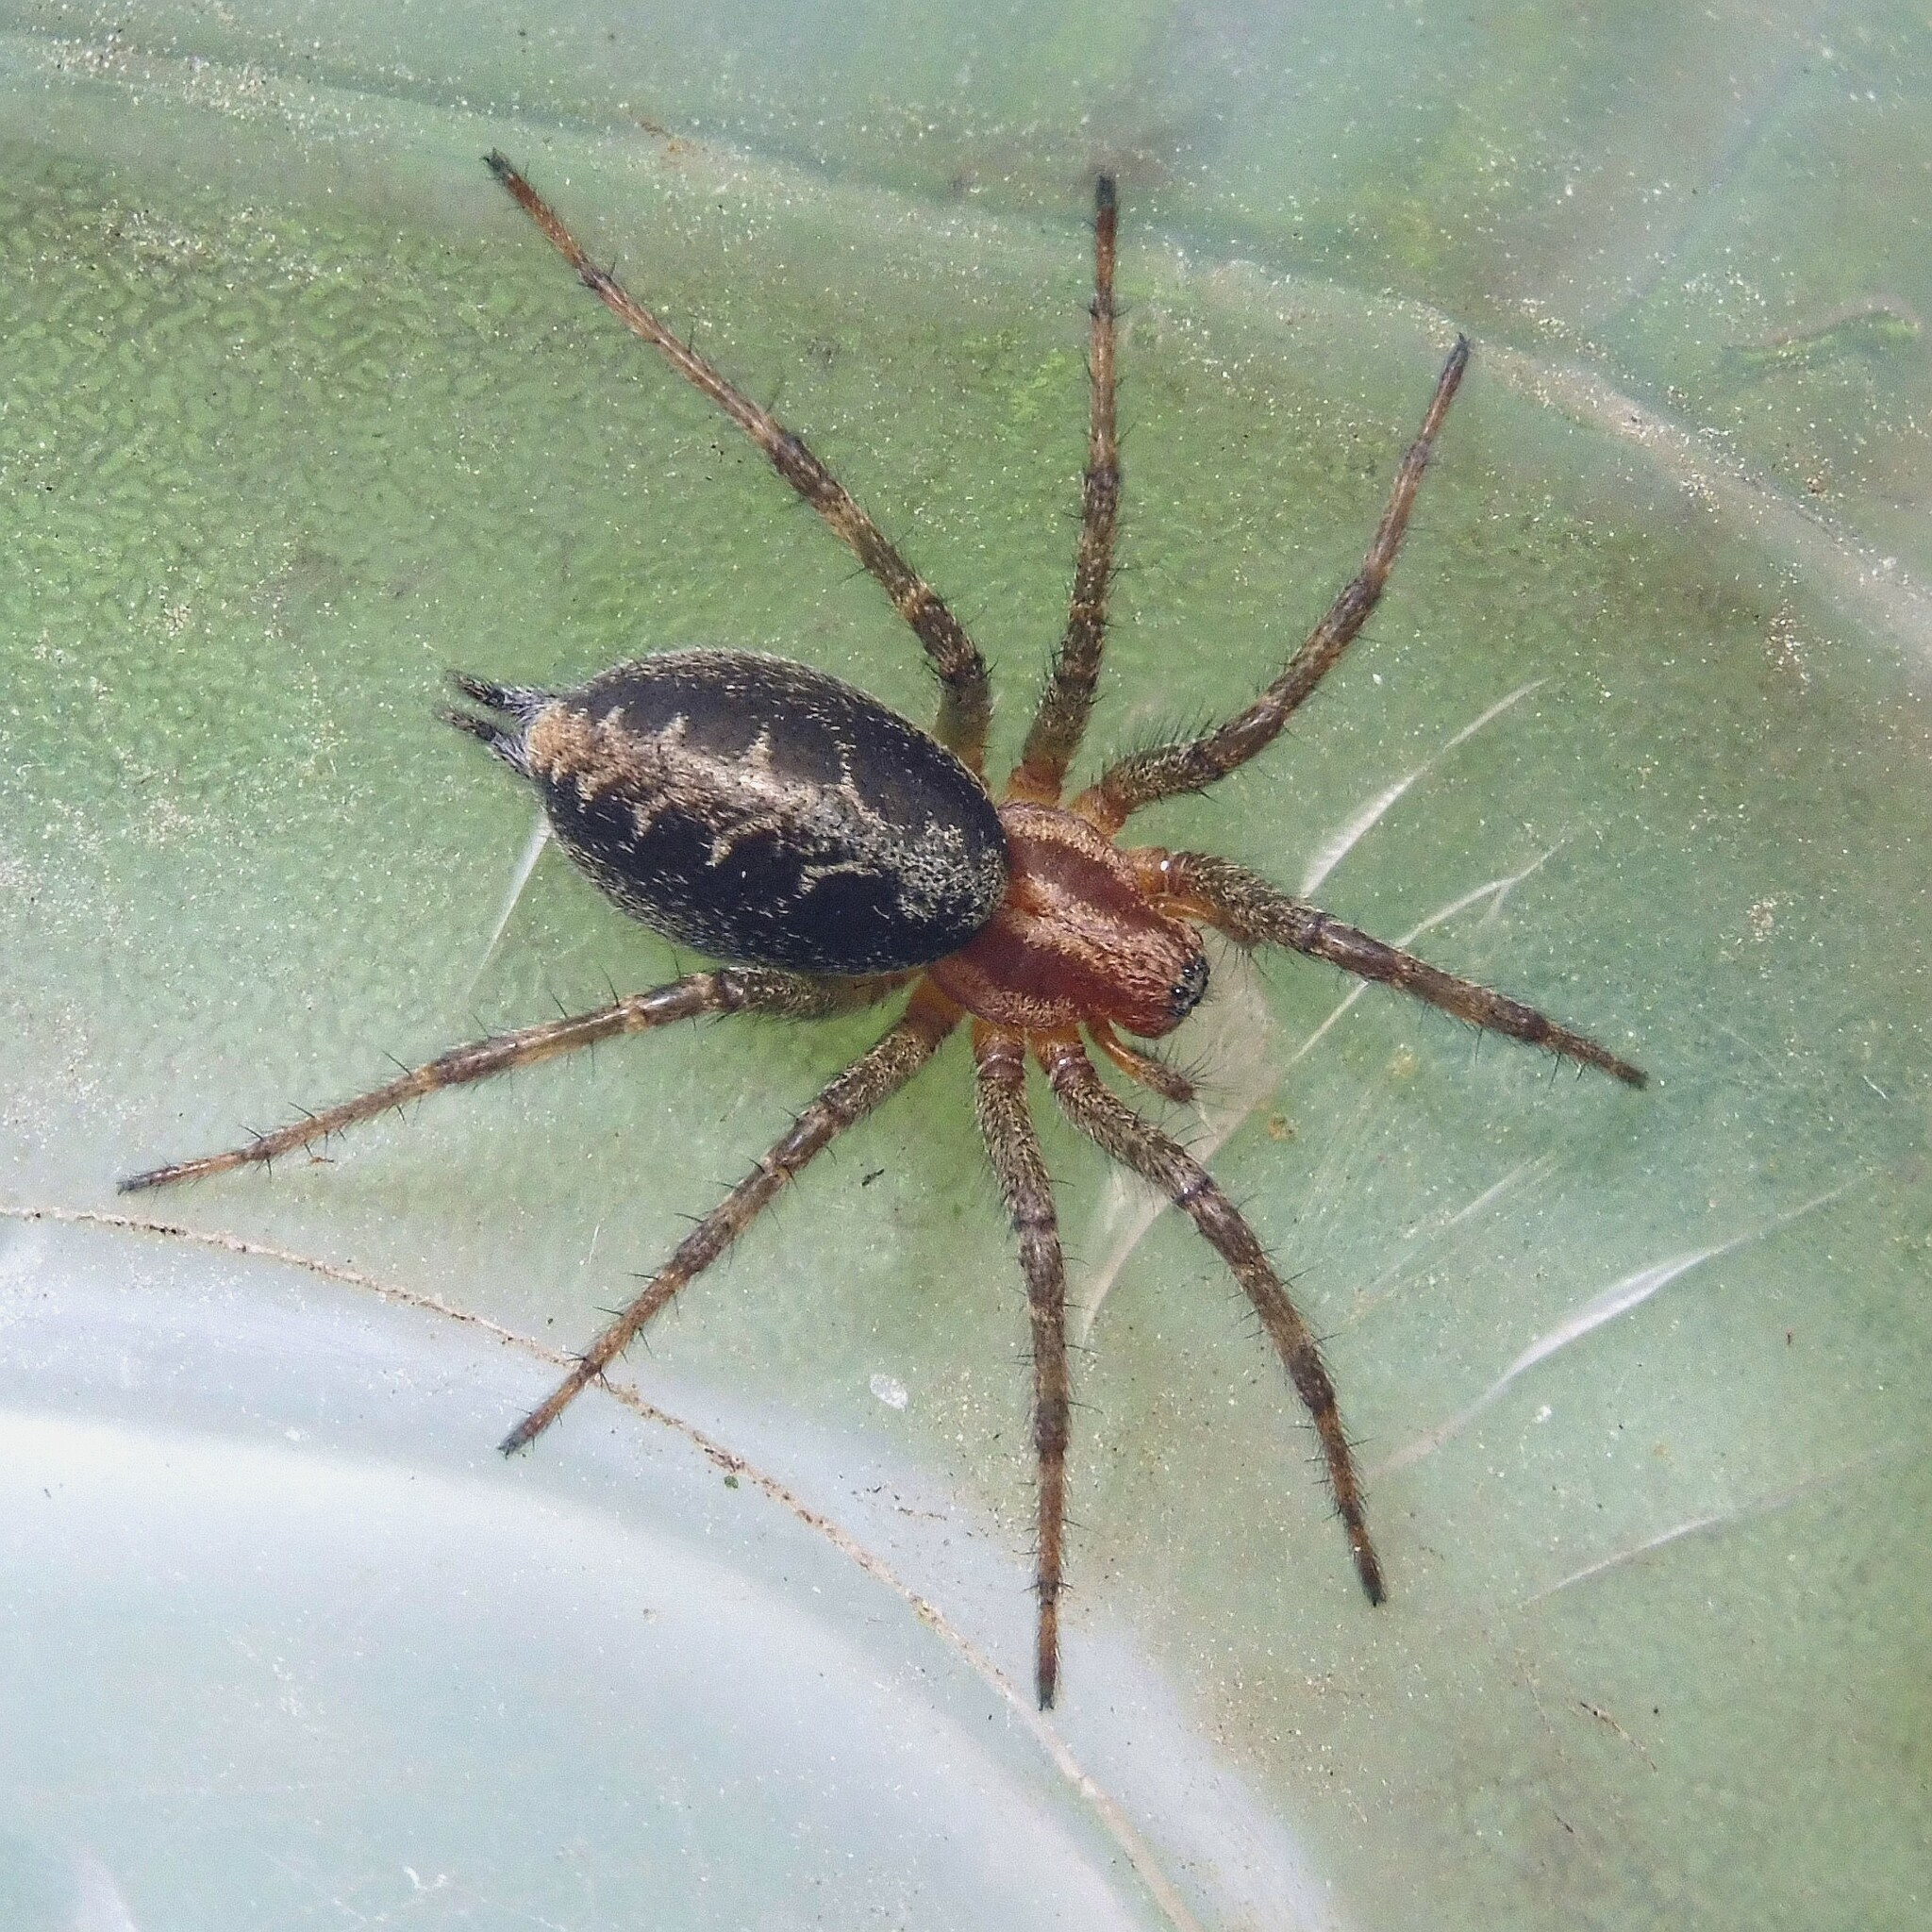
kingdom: Animalia
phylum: Arthropoda
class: Arachnida
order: Araneae
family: Agelenidae
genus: Agelena
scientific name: Agelena labyrinthica
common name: Labyrinth spider
